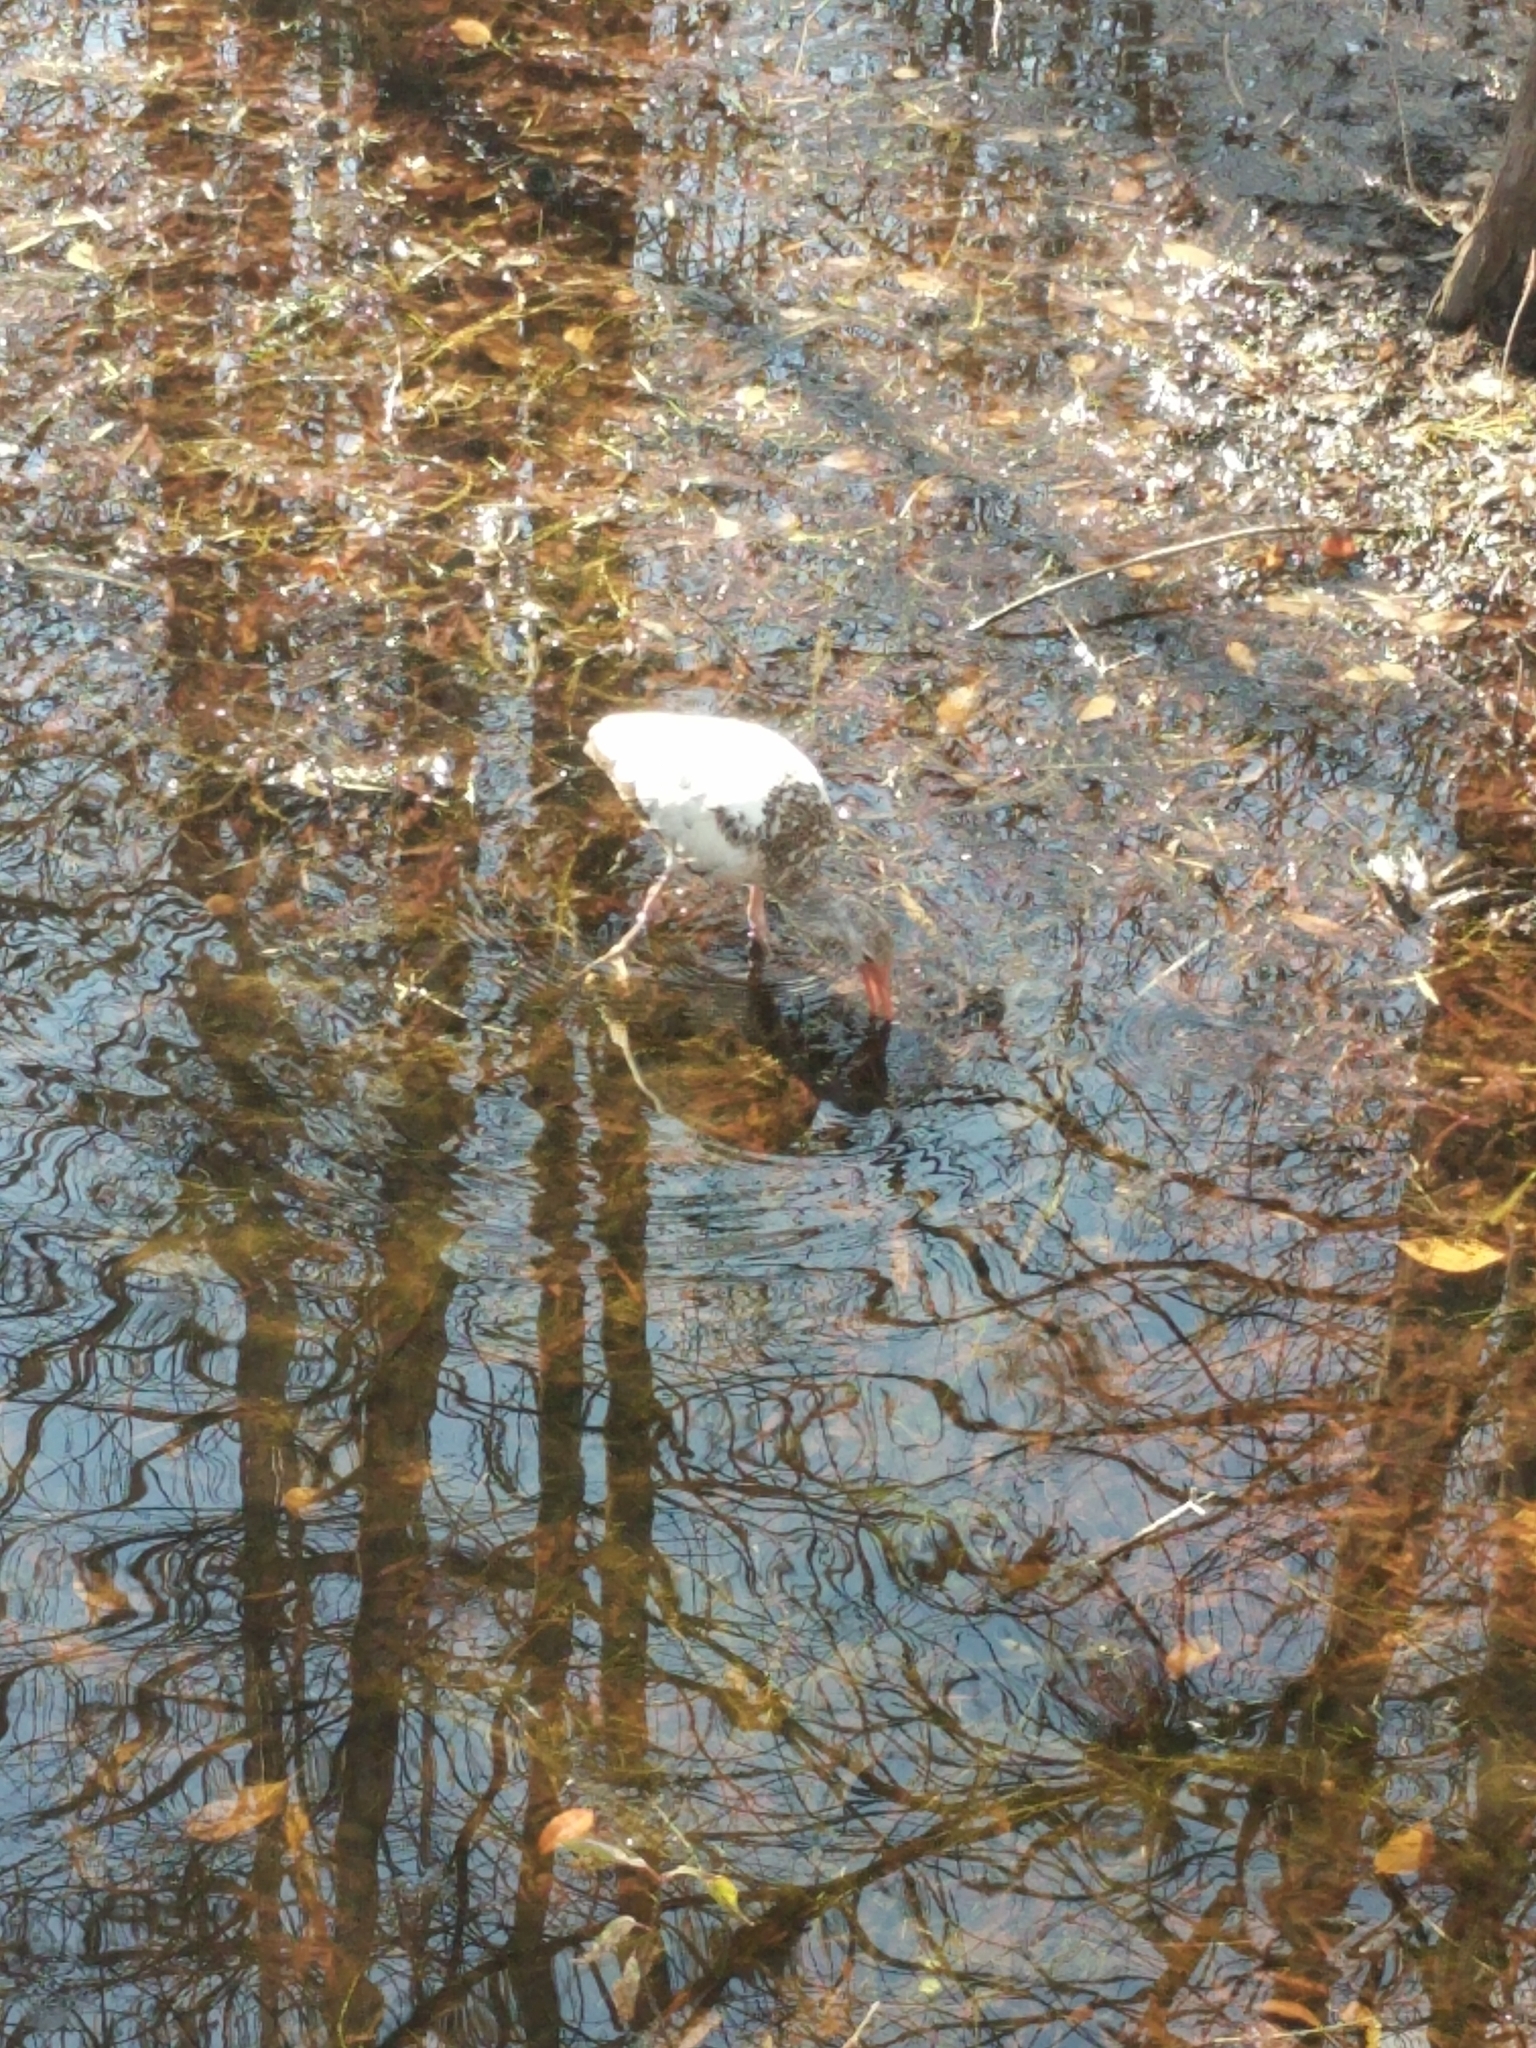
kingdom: Animalia
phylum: Chordata
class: Aves
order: Pelecaniformes
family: Threskiornithidae
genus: Eudocimus
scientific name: Eudocimus albus
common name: White ibis
